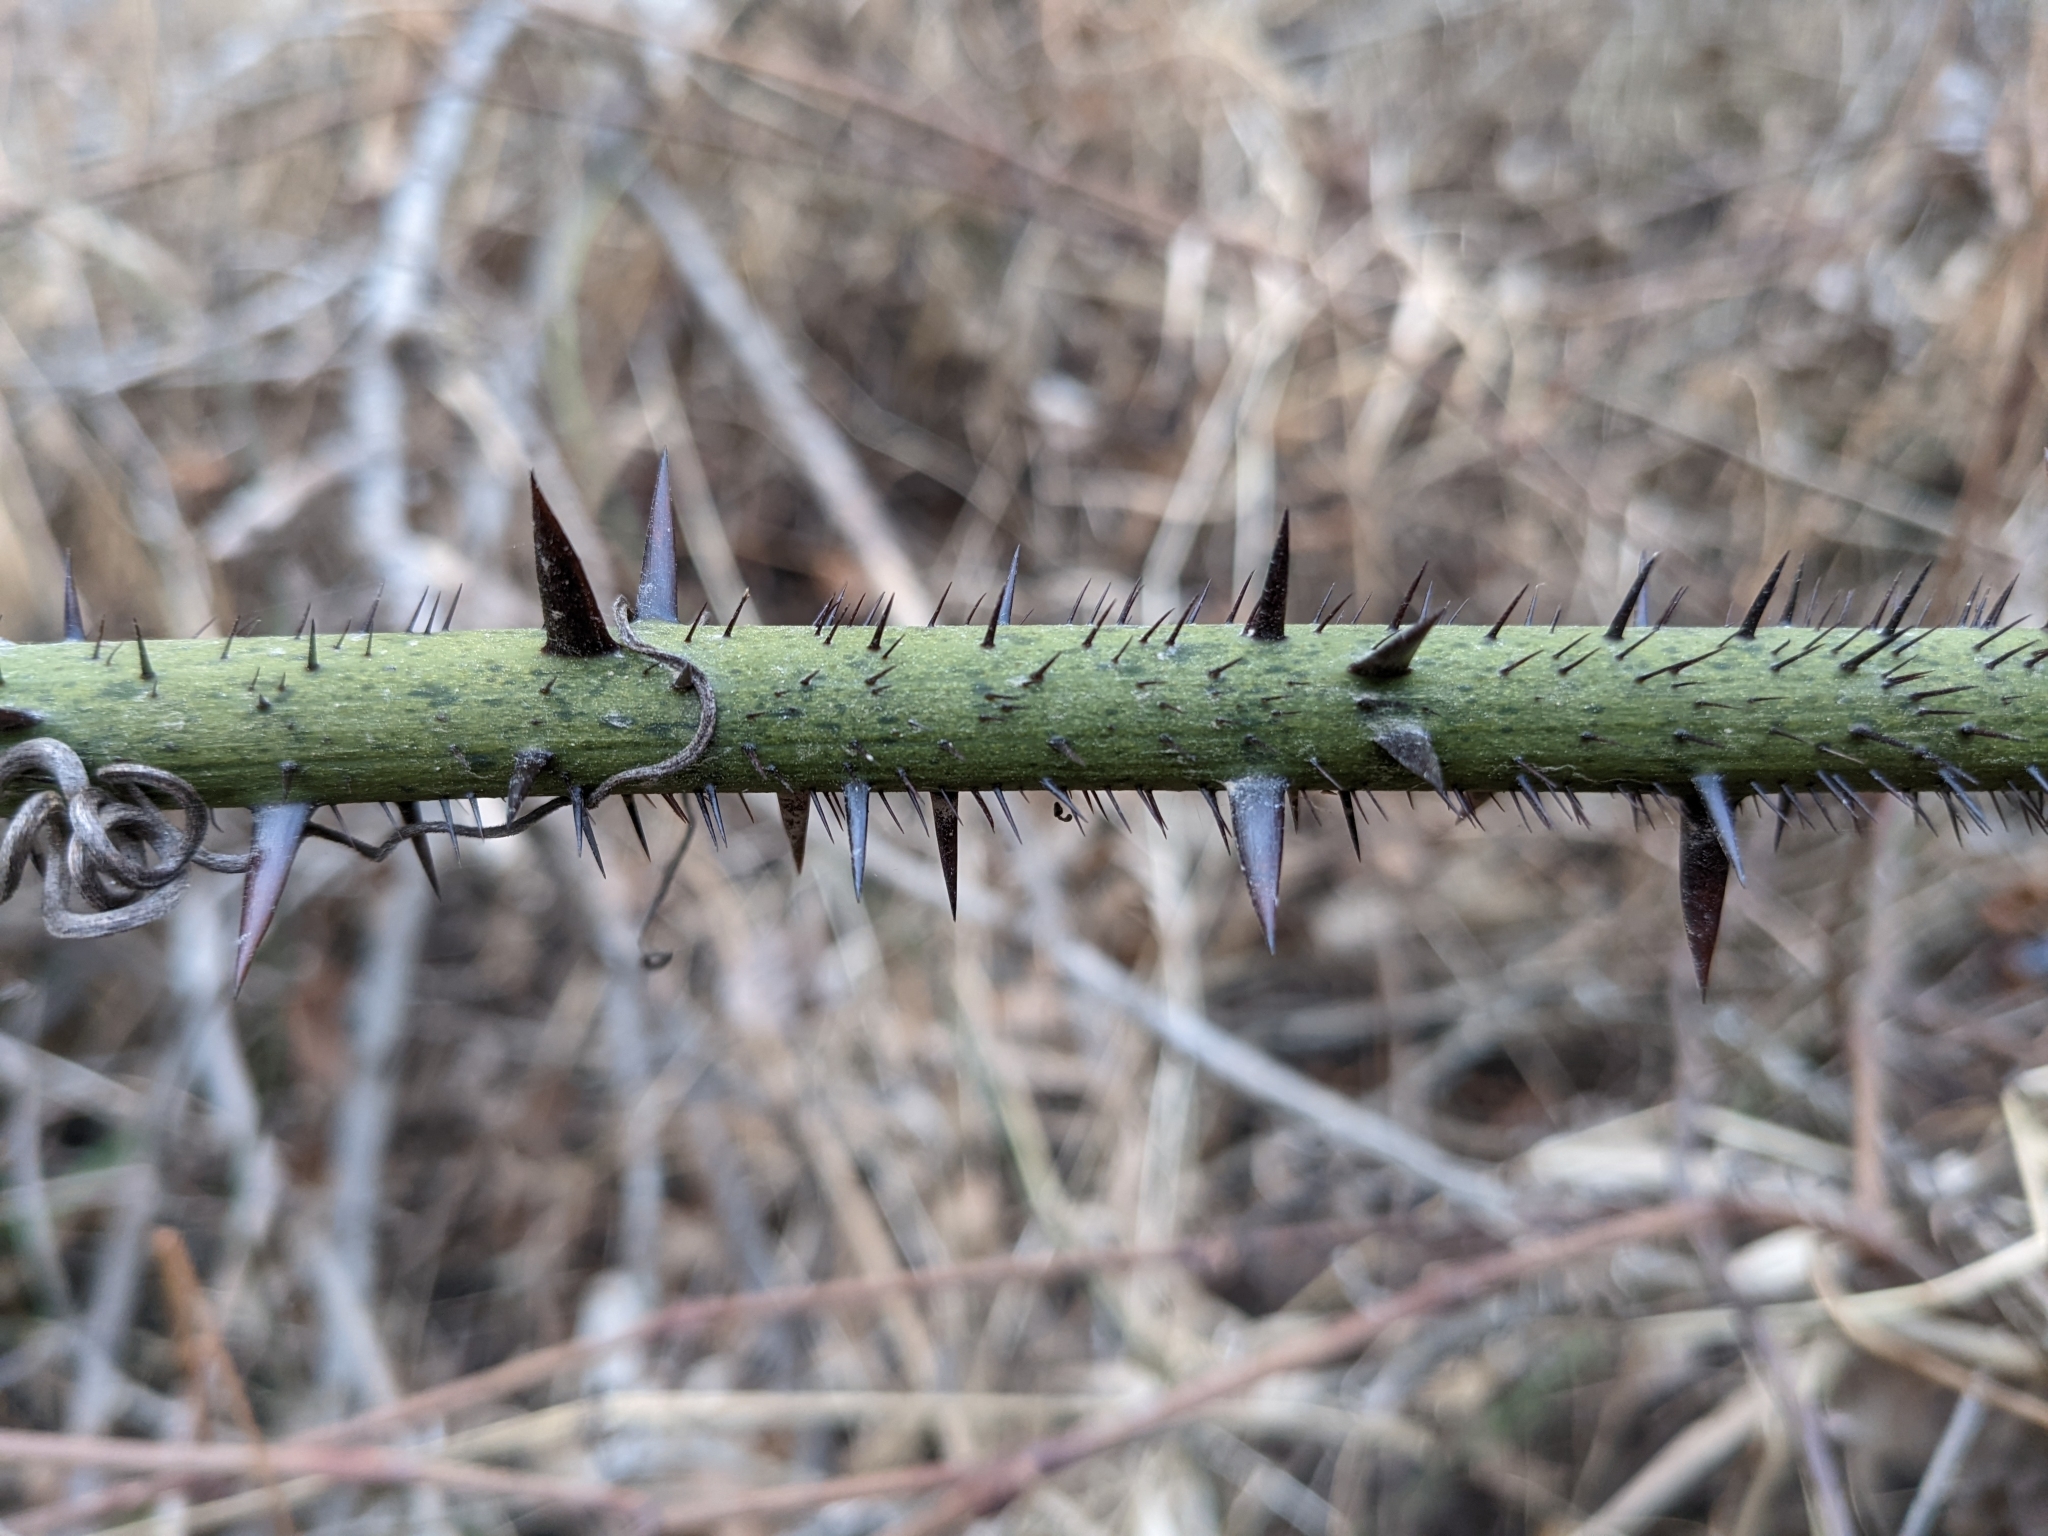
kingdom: Plantae
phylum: Tracheophyta
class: Liliopsida
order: Liliales
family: Smilacaceae
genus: Smilax
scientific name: Smilax tamnoides
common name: Hellfetter
